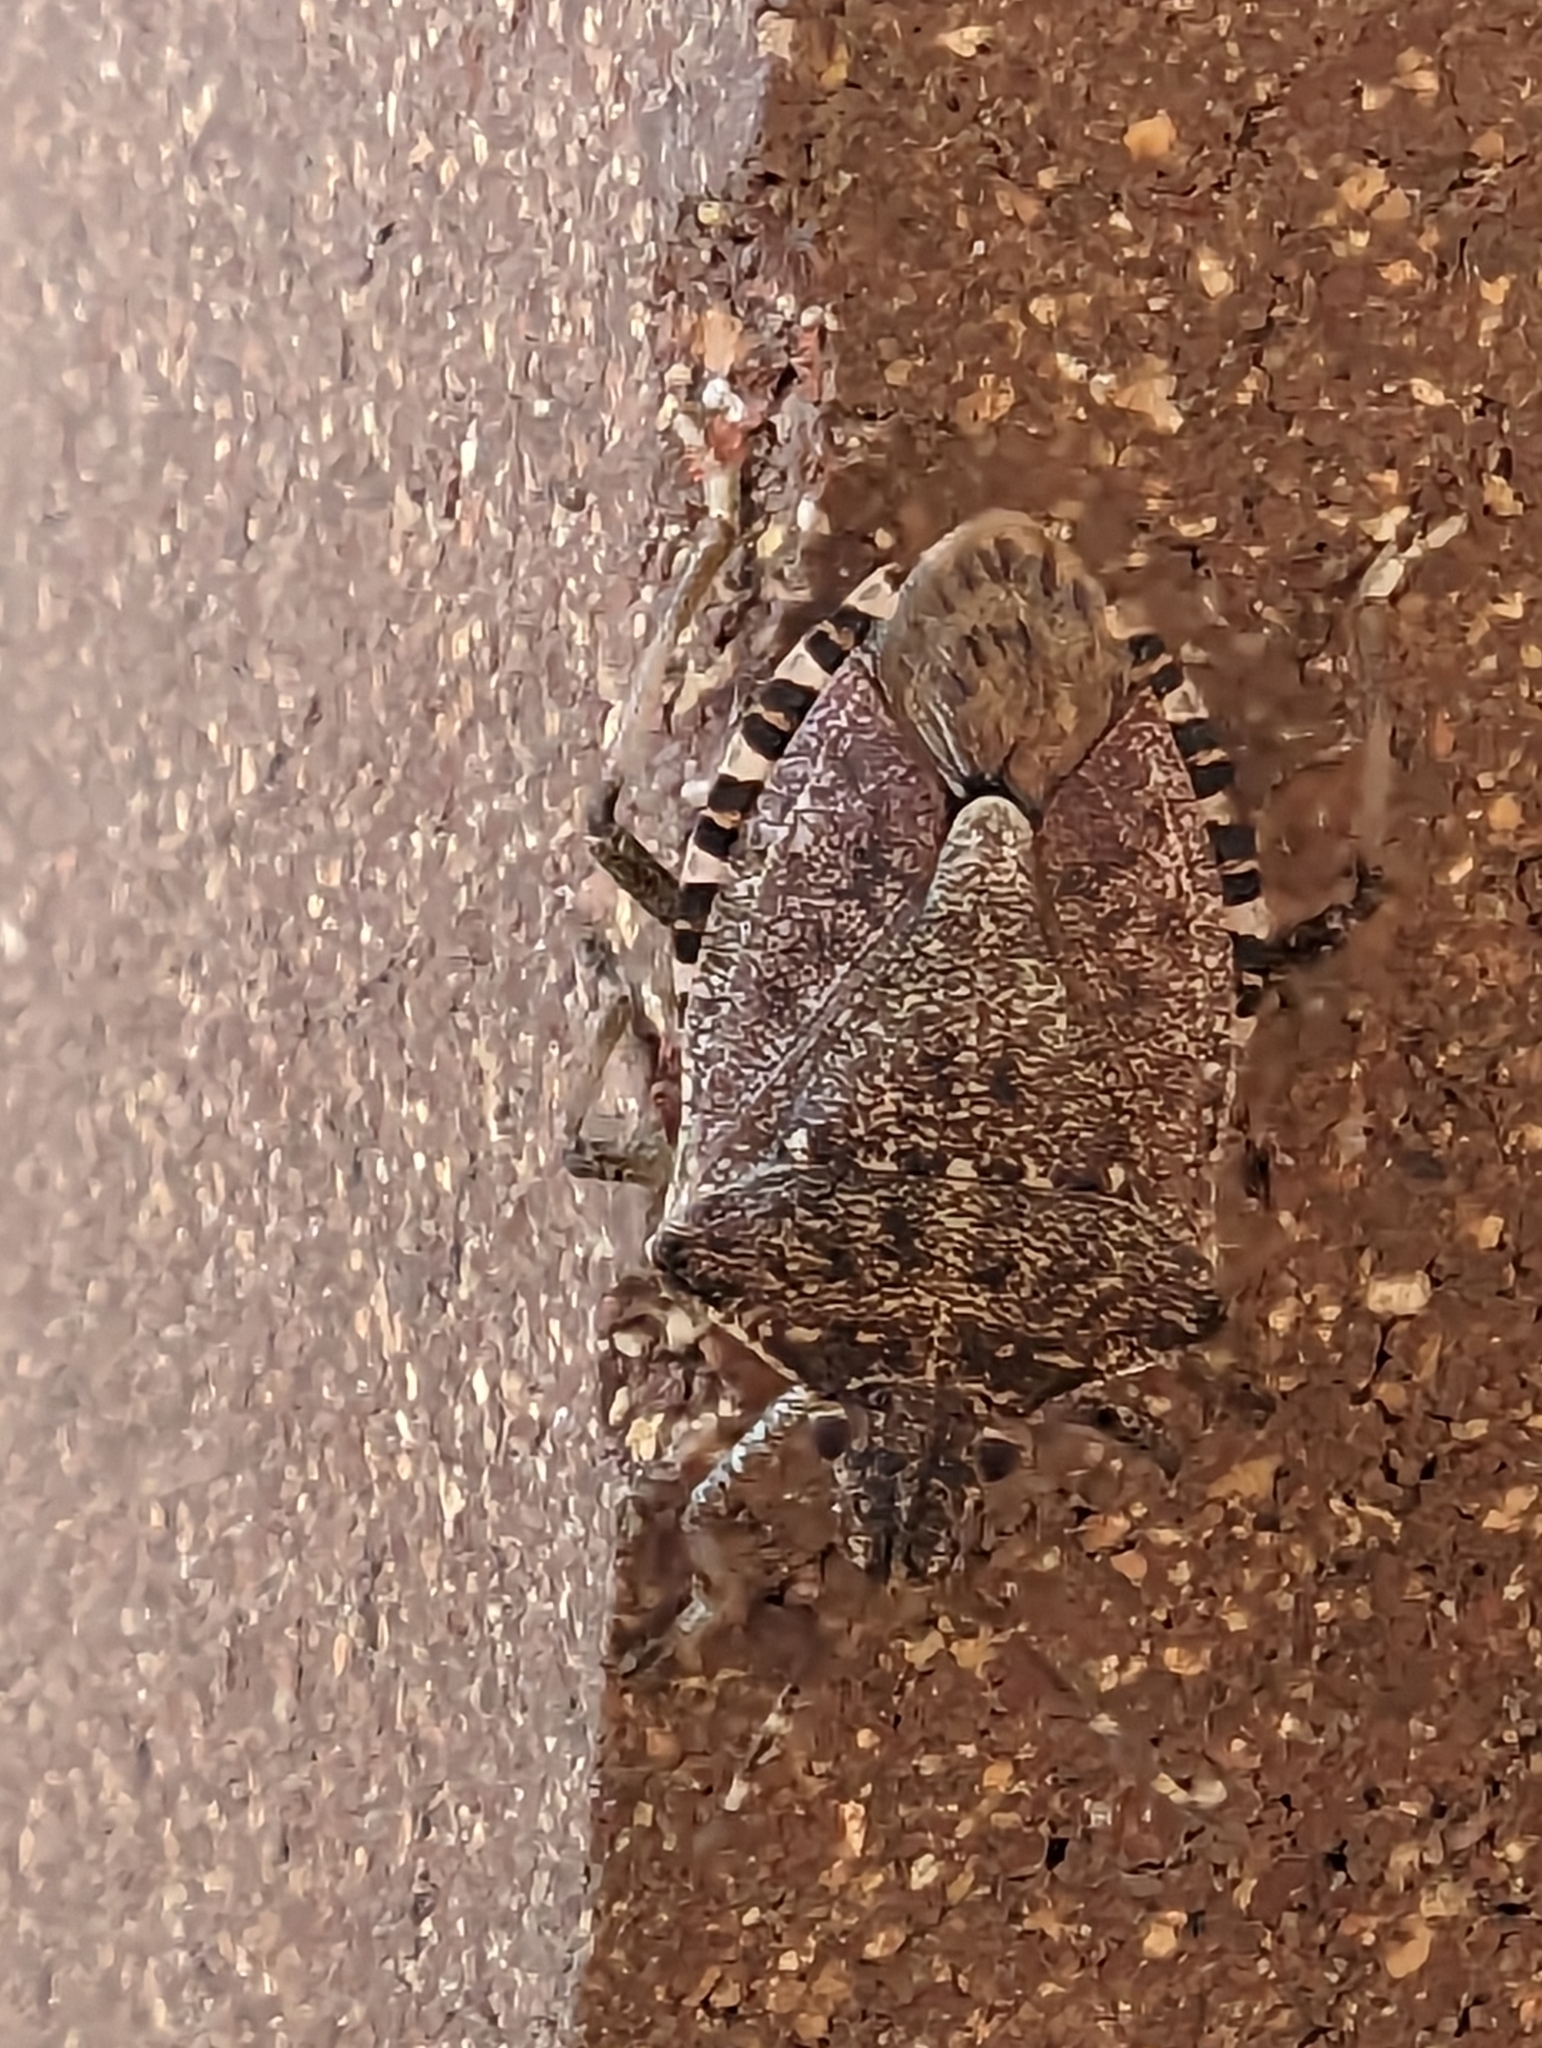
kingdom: Animalia
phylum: Arthropoda
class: Insecta
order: Hemiptera
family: Pentatomidae
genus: Halyomorpha
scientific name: Halyomorpha halys
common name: Brown marmorated stink bug
